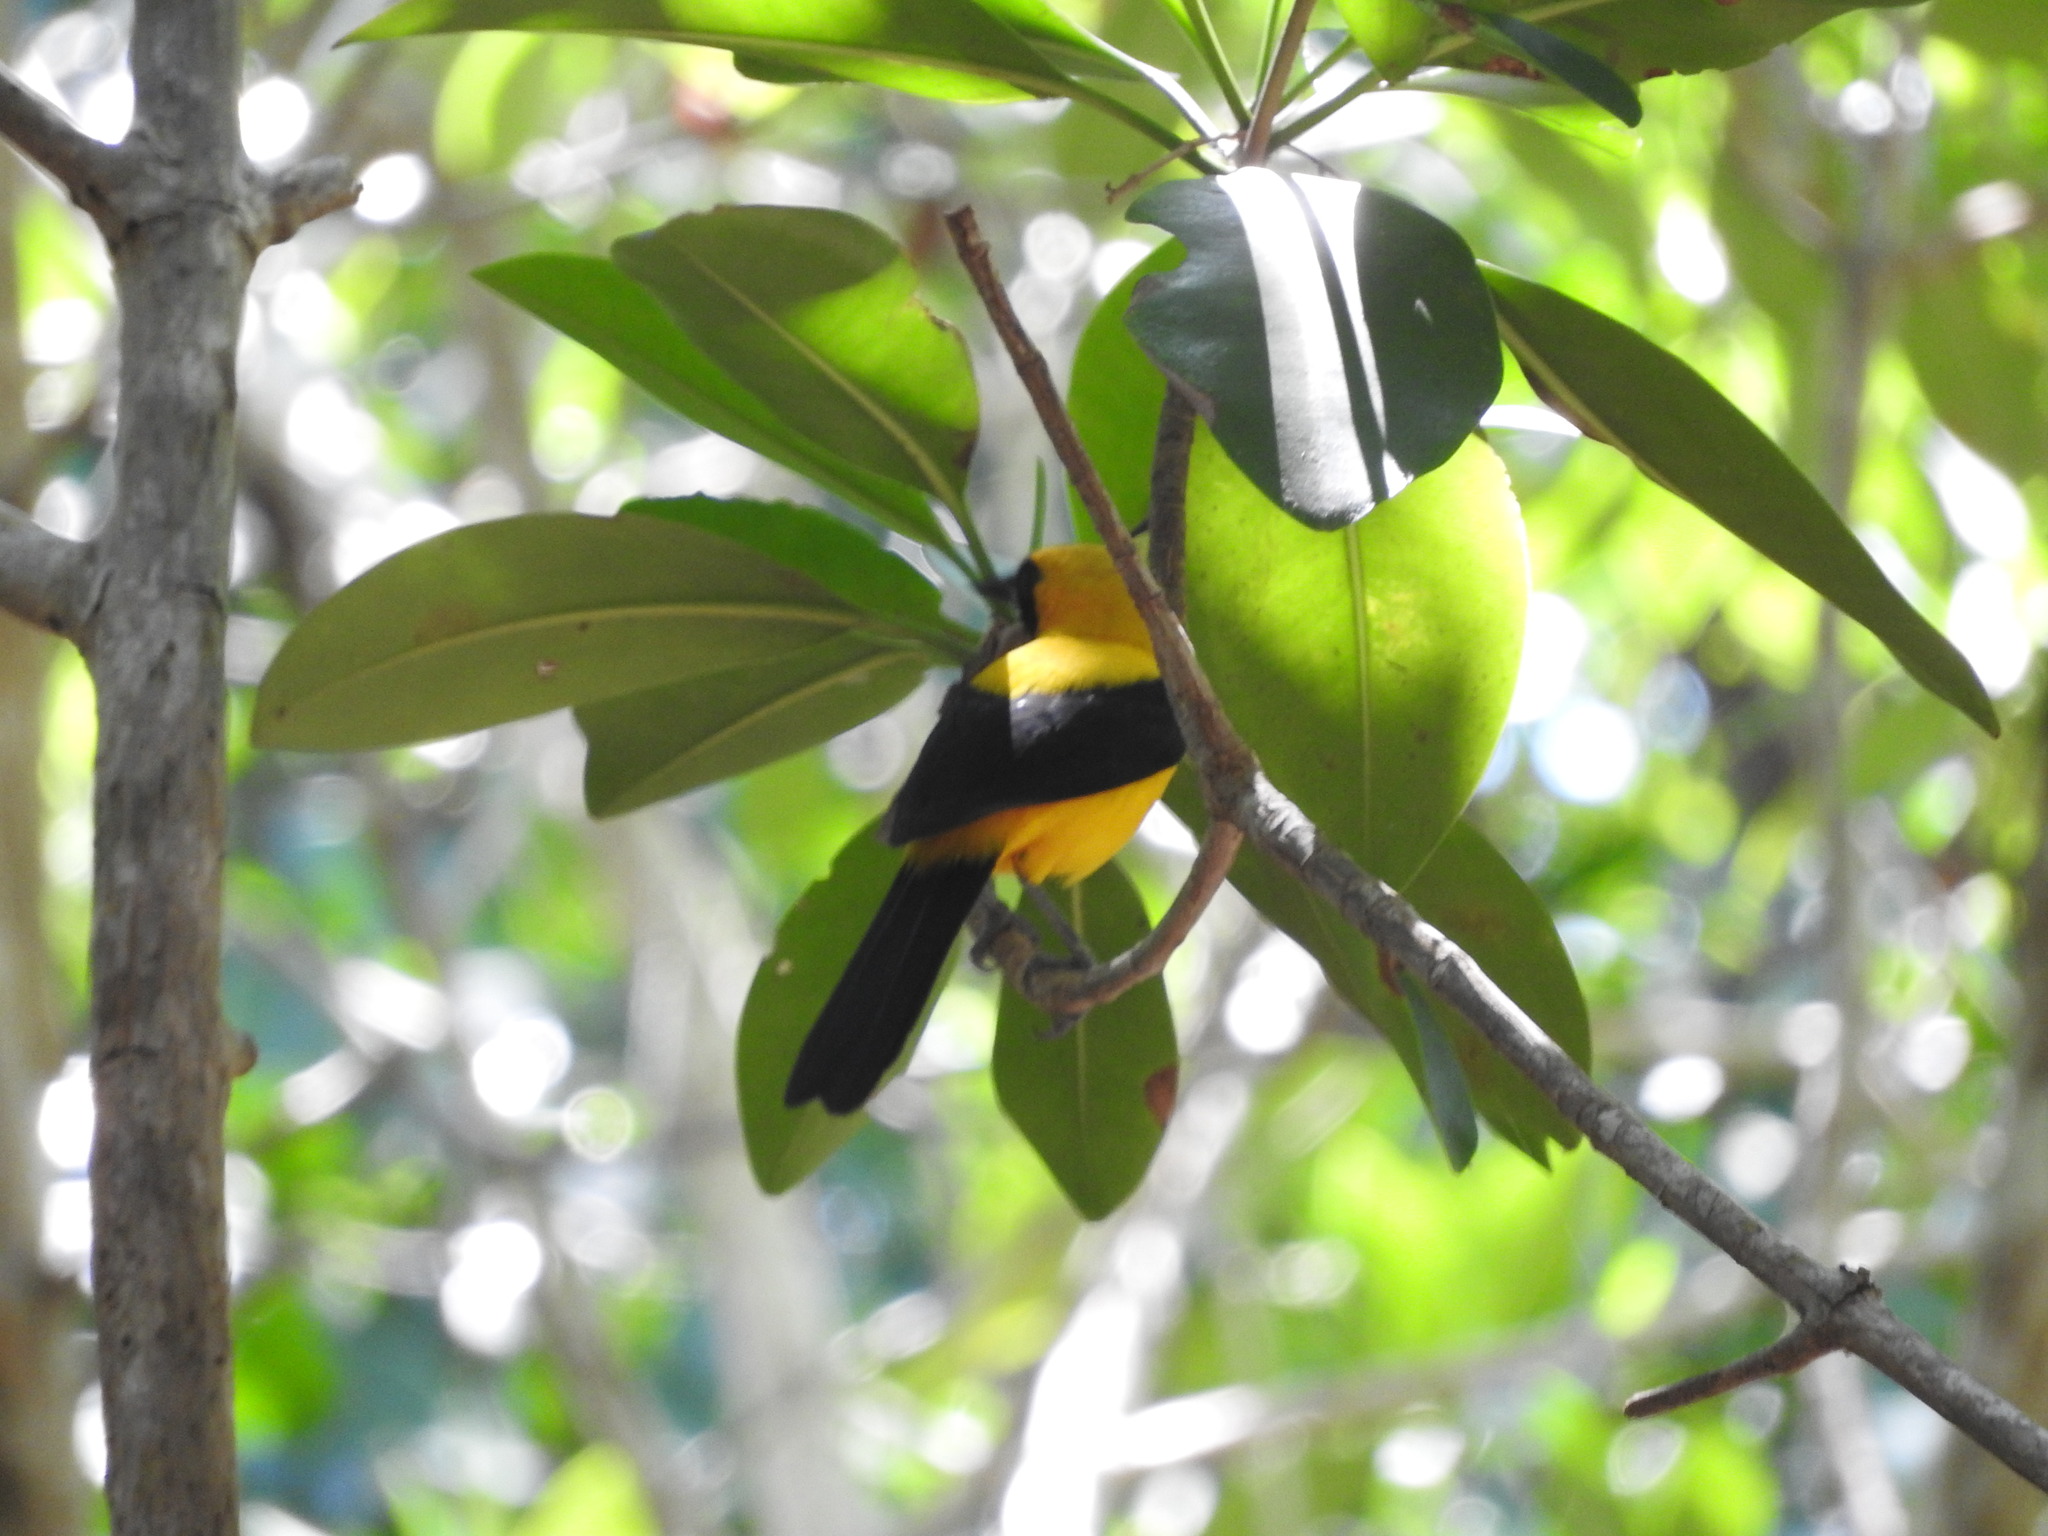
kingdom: Animalia
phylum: Chordata
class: Aves
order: Passeriformes
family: Icteridae
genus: Icterus
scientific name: Icterus chrysater
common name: Yellow-backed oriole
